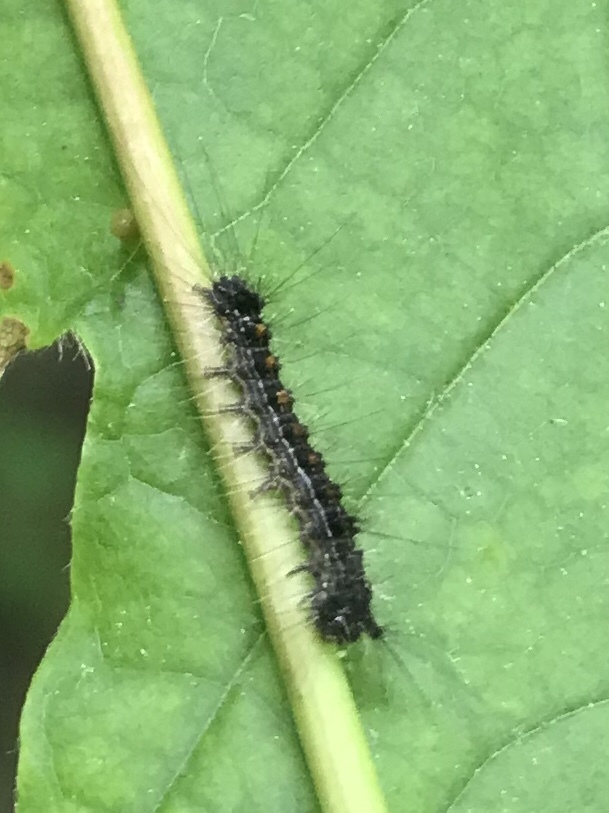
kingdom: Animalia
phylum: Arthropoda
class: Insecta
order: Lepidoptera
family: Erebidae
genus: Lymantria
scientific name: Lymantria dispar
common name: Gypsy moth
